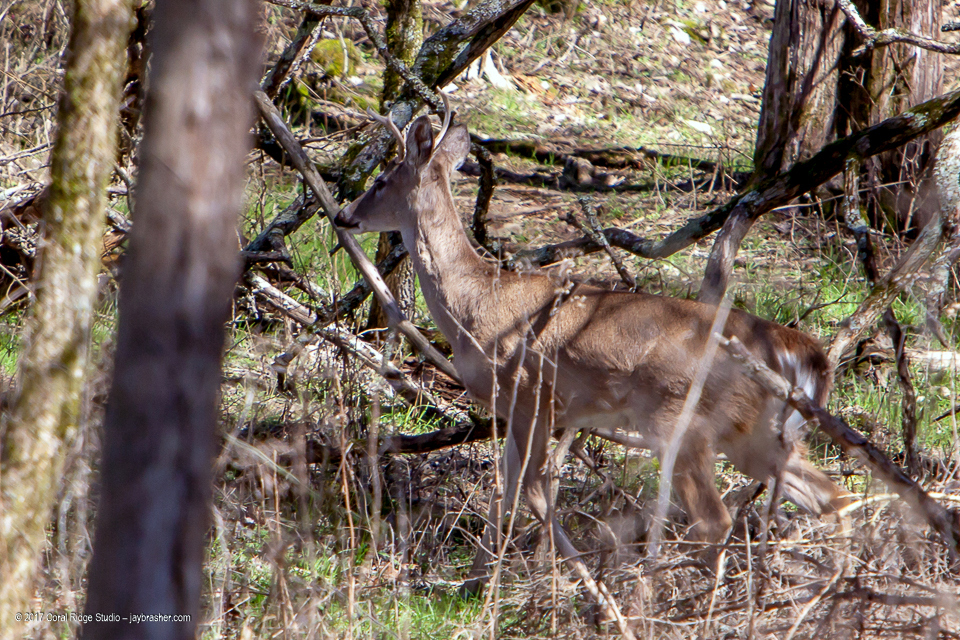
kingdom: Animalia
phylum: Chordata
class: Mammalia
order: Artiodactyla
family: Cervidae
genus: Odocoileus
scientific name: Odocoileus virginianus
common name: White-tailed deer
